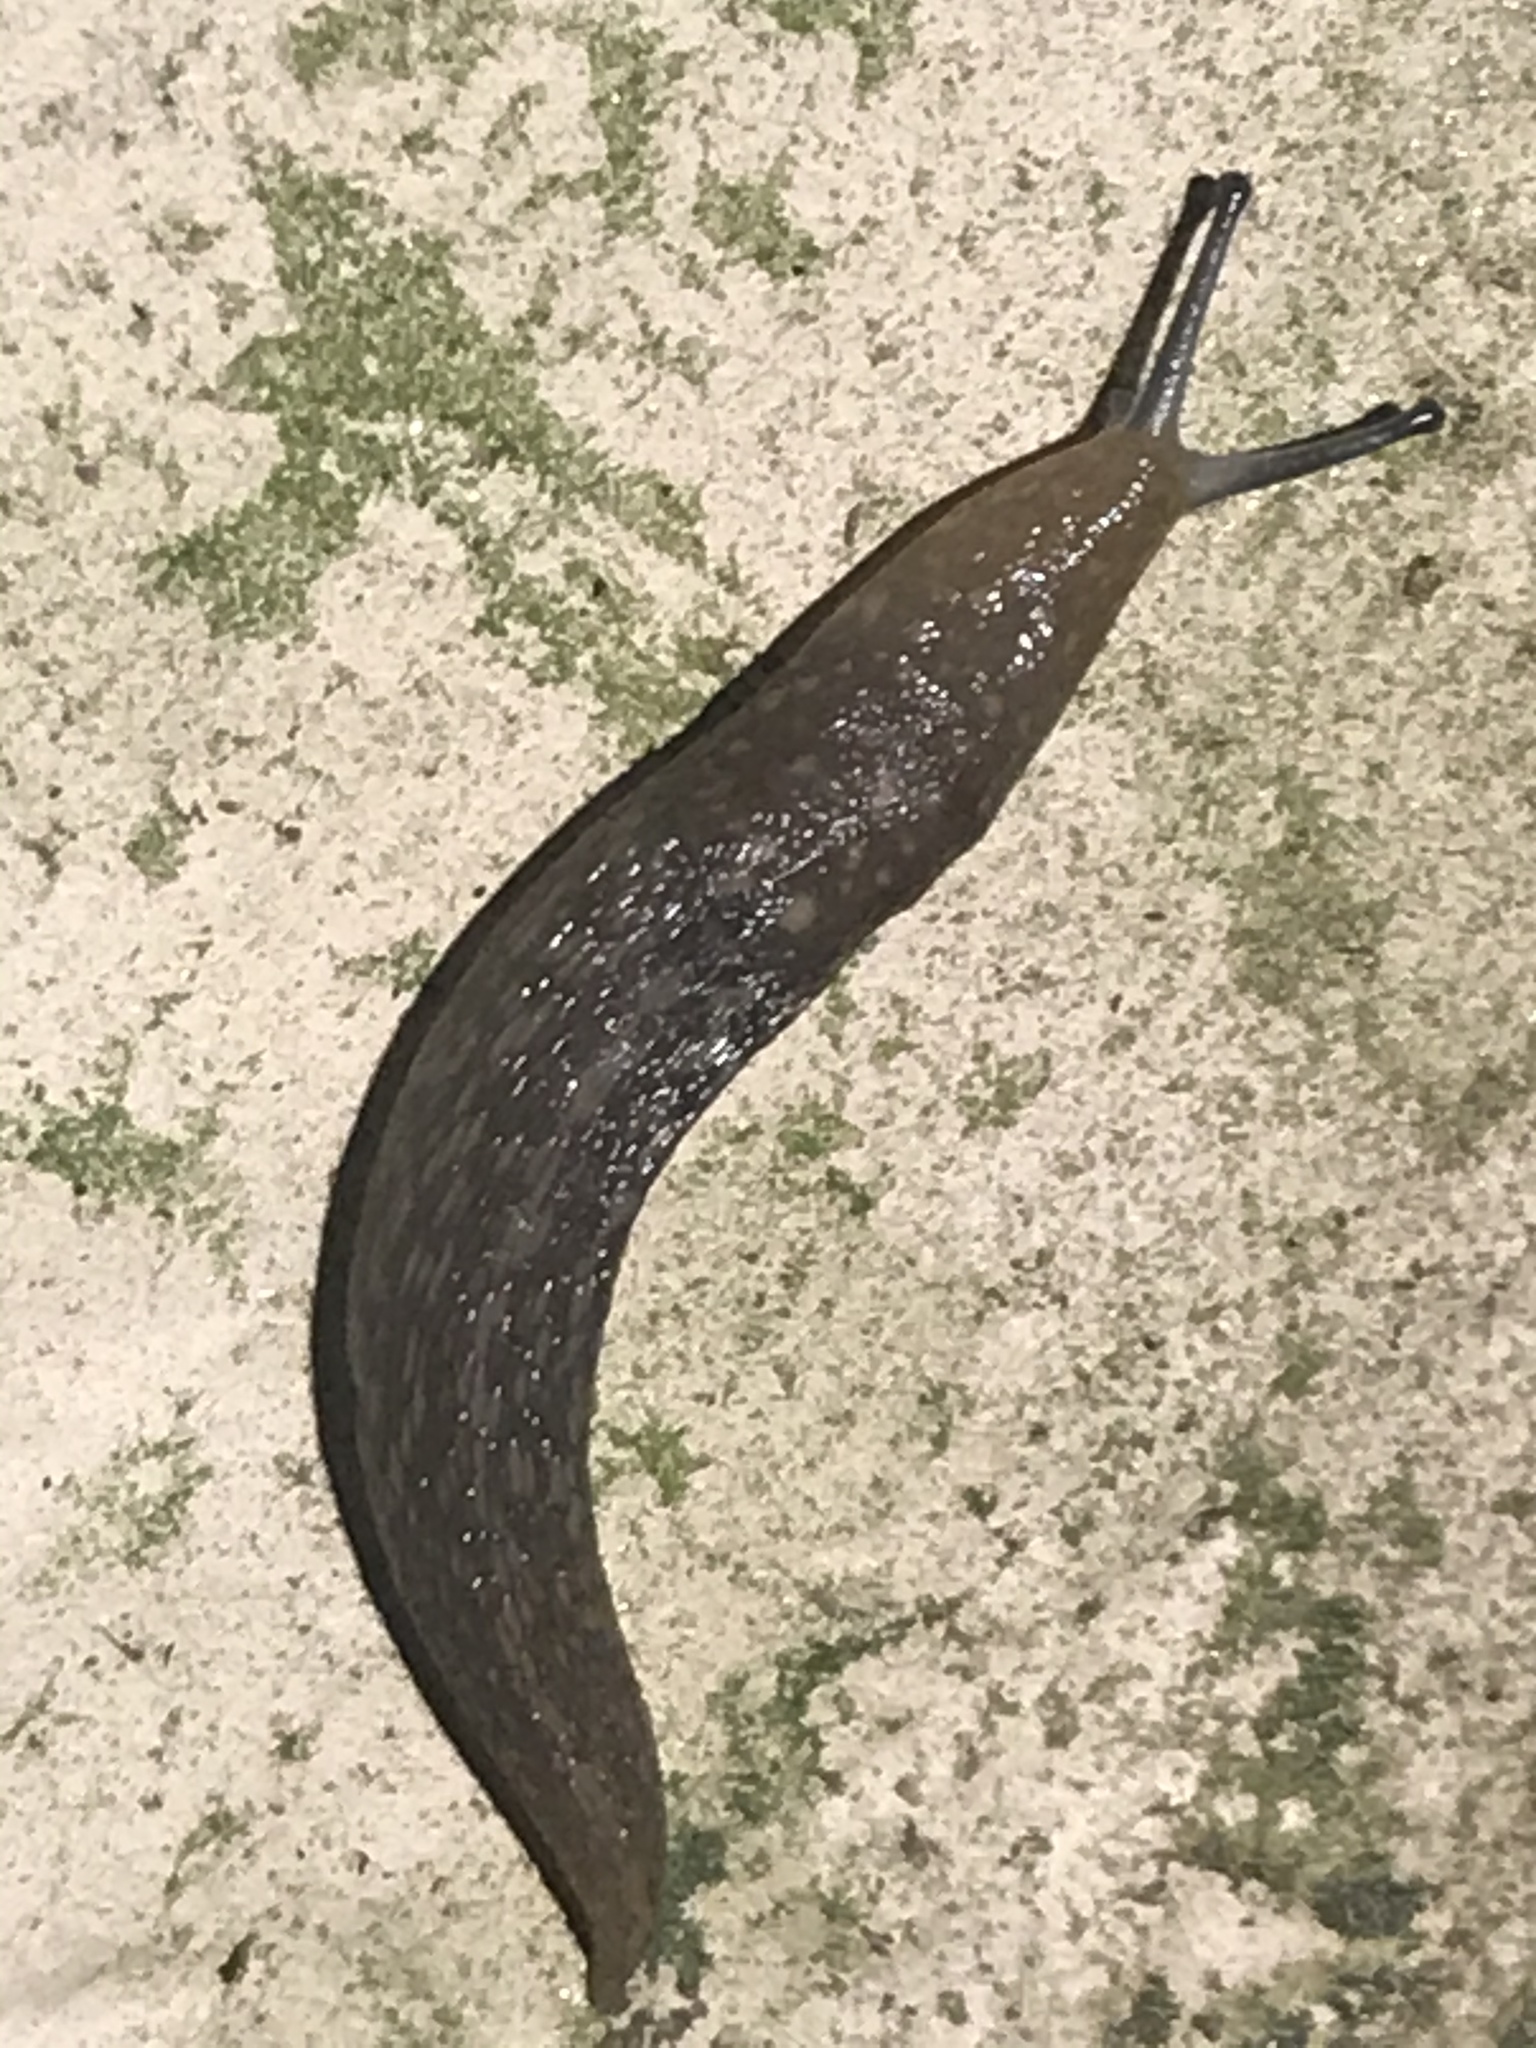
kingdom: Animalia
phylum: Mollusca
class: Gastropoda
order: Stylommatophora
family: Limacidae
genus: Limacus
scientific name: Limacus flavus
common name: Yellow gardenslug
